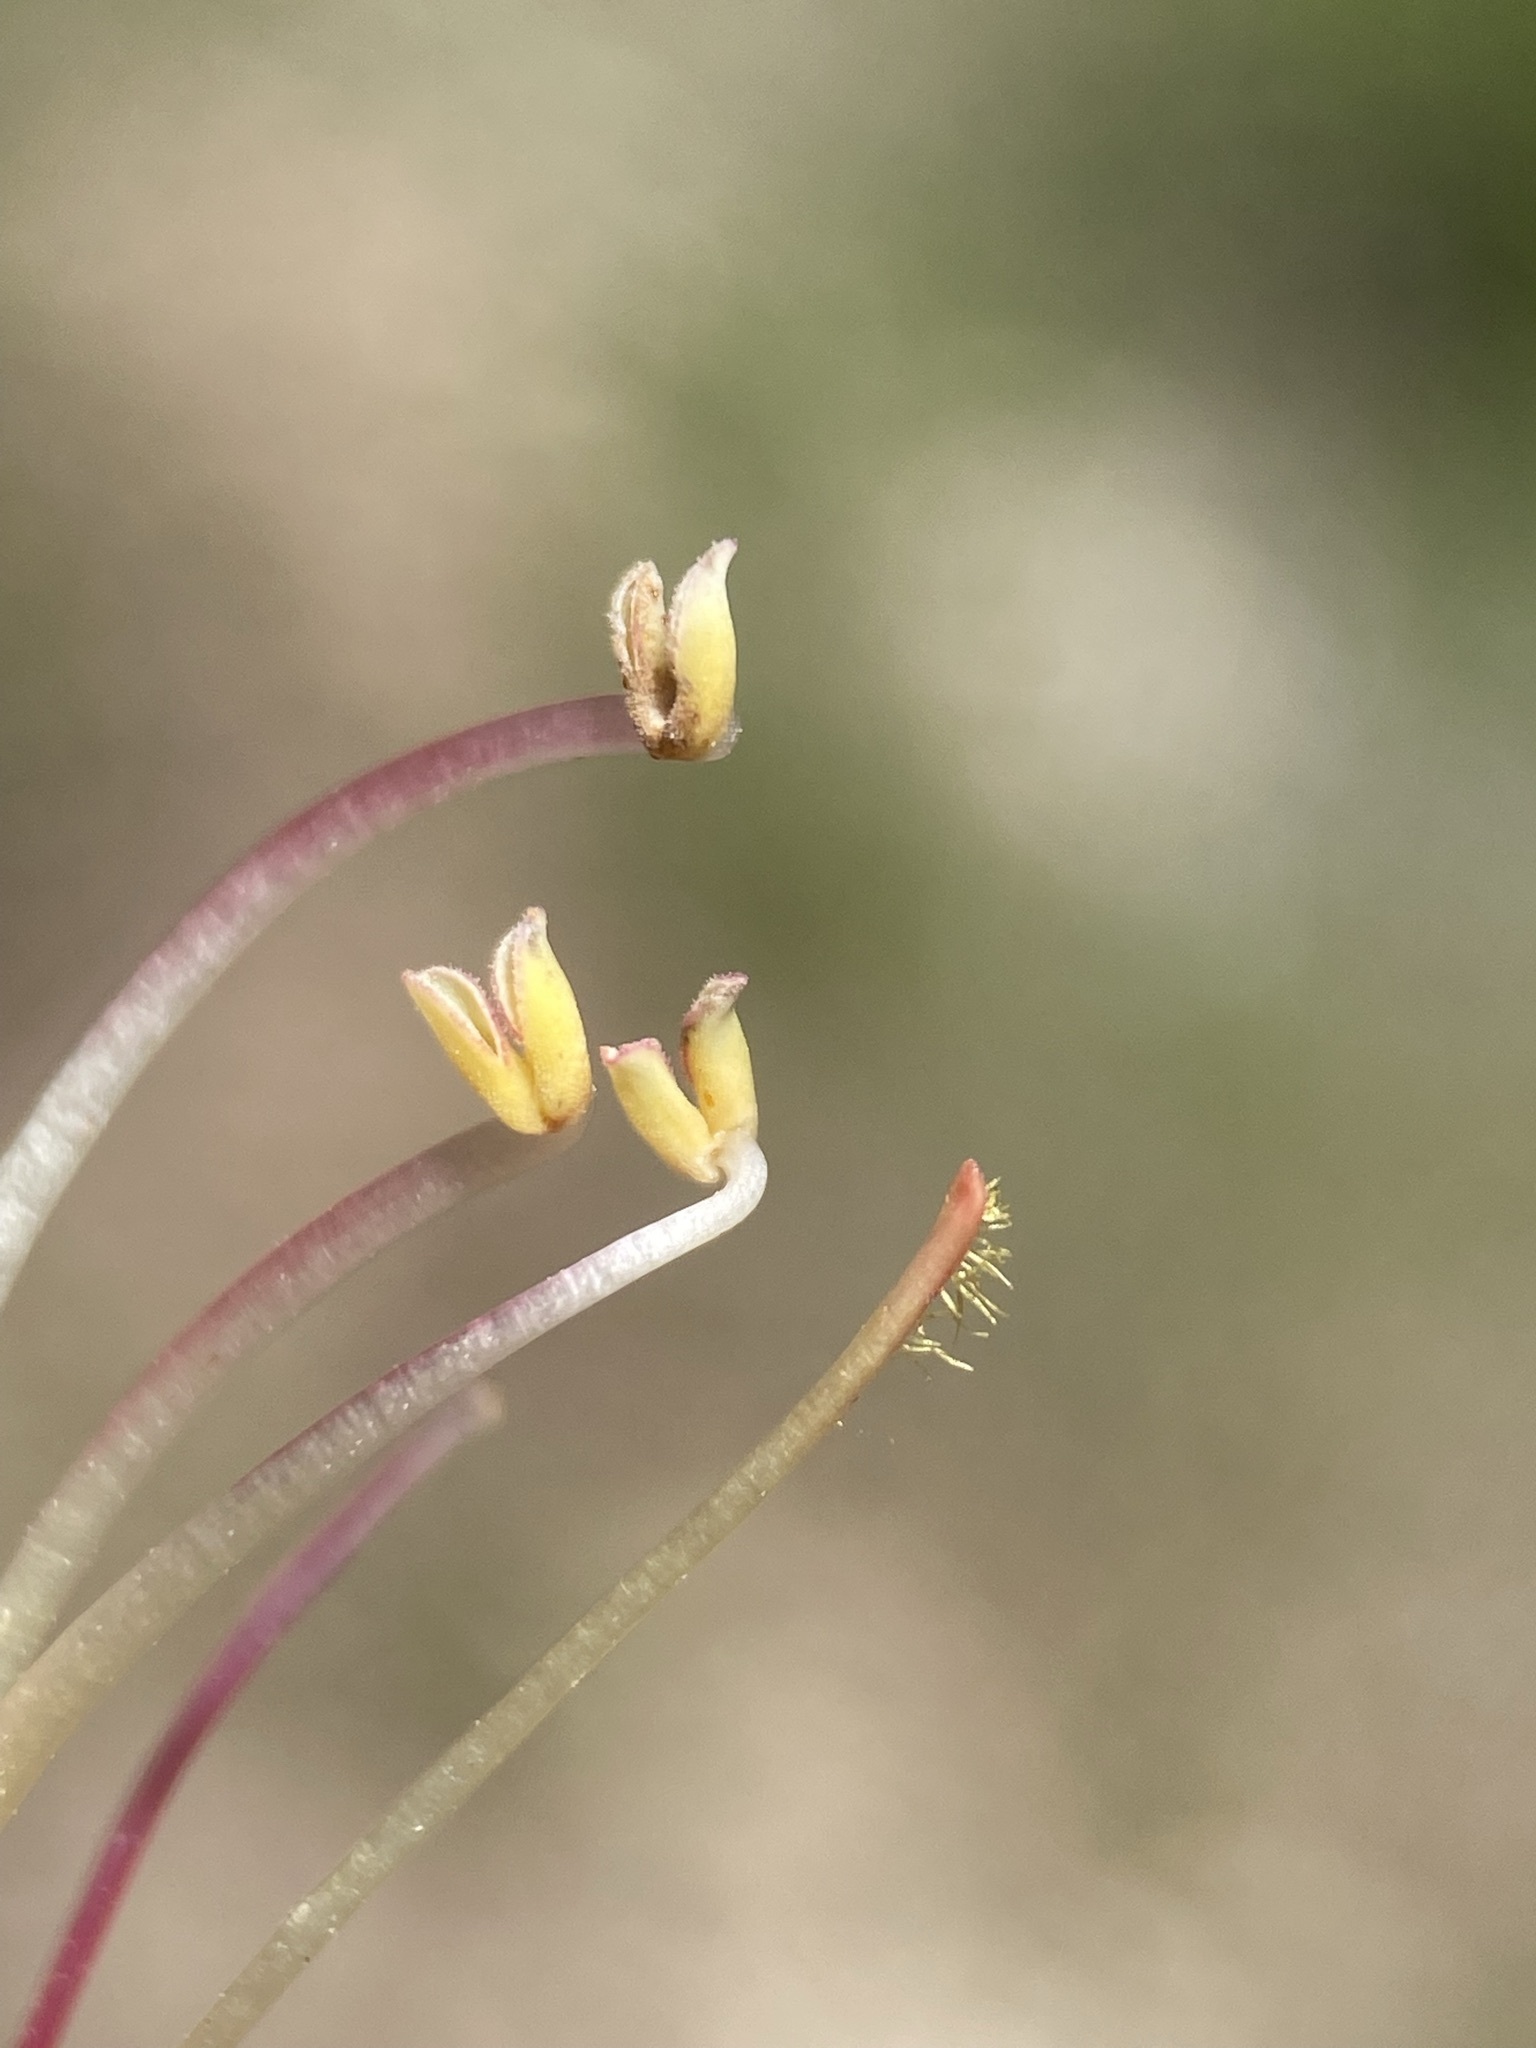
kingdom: Plantae
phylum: Tracheophyta
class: Magnoliopsida
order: Lamiales
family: Plantaginaceae
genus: Penstemon
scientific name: Penstemon eatonii
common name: Eaton's penstemon
